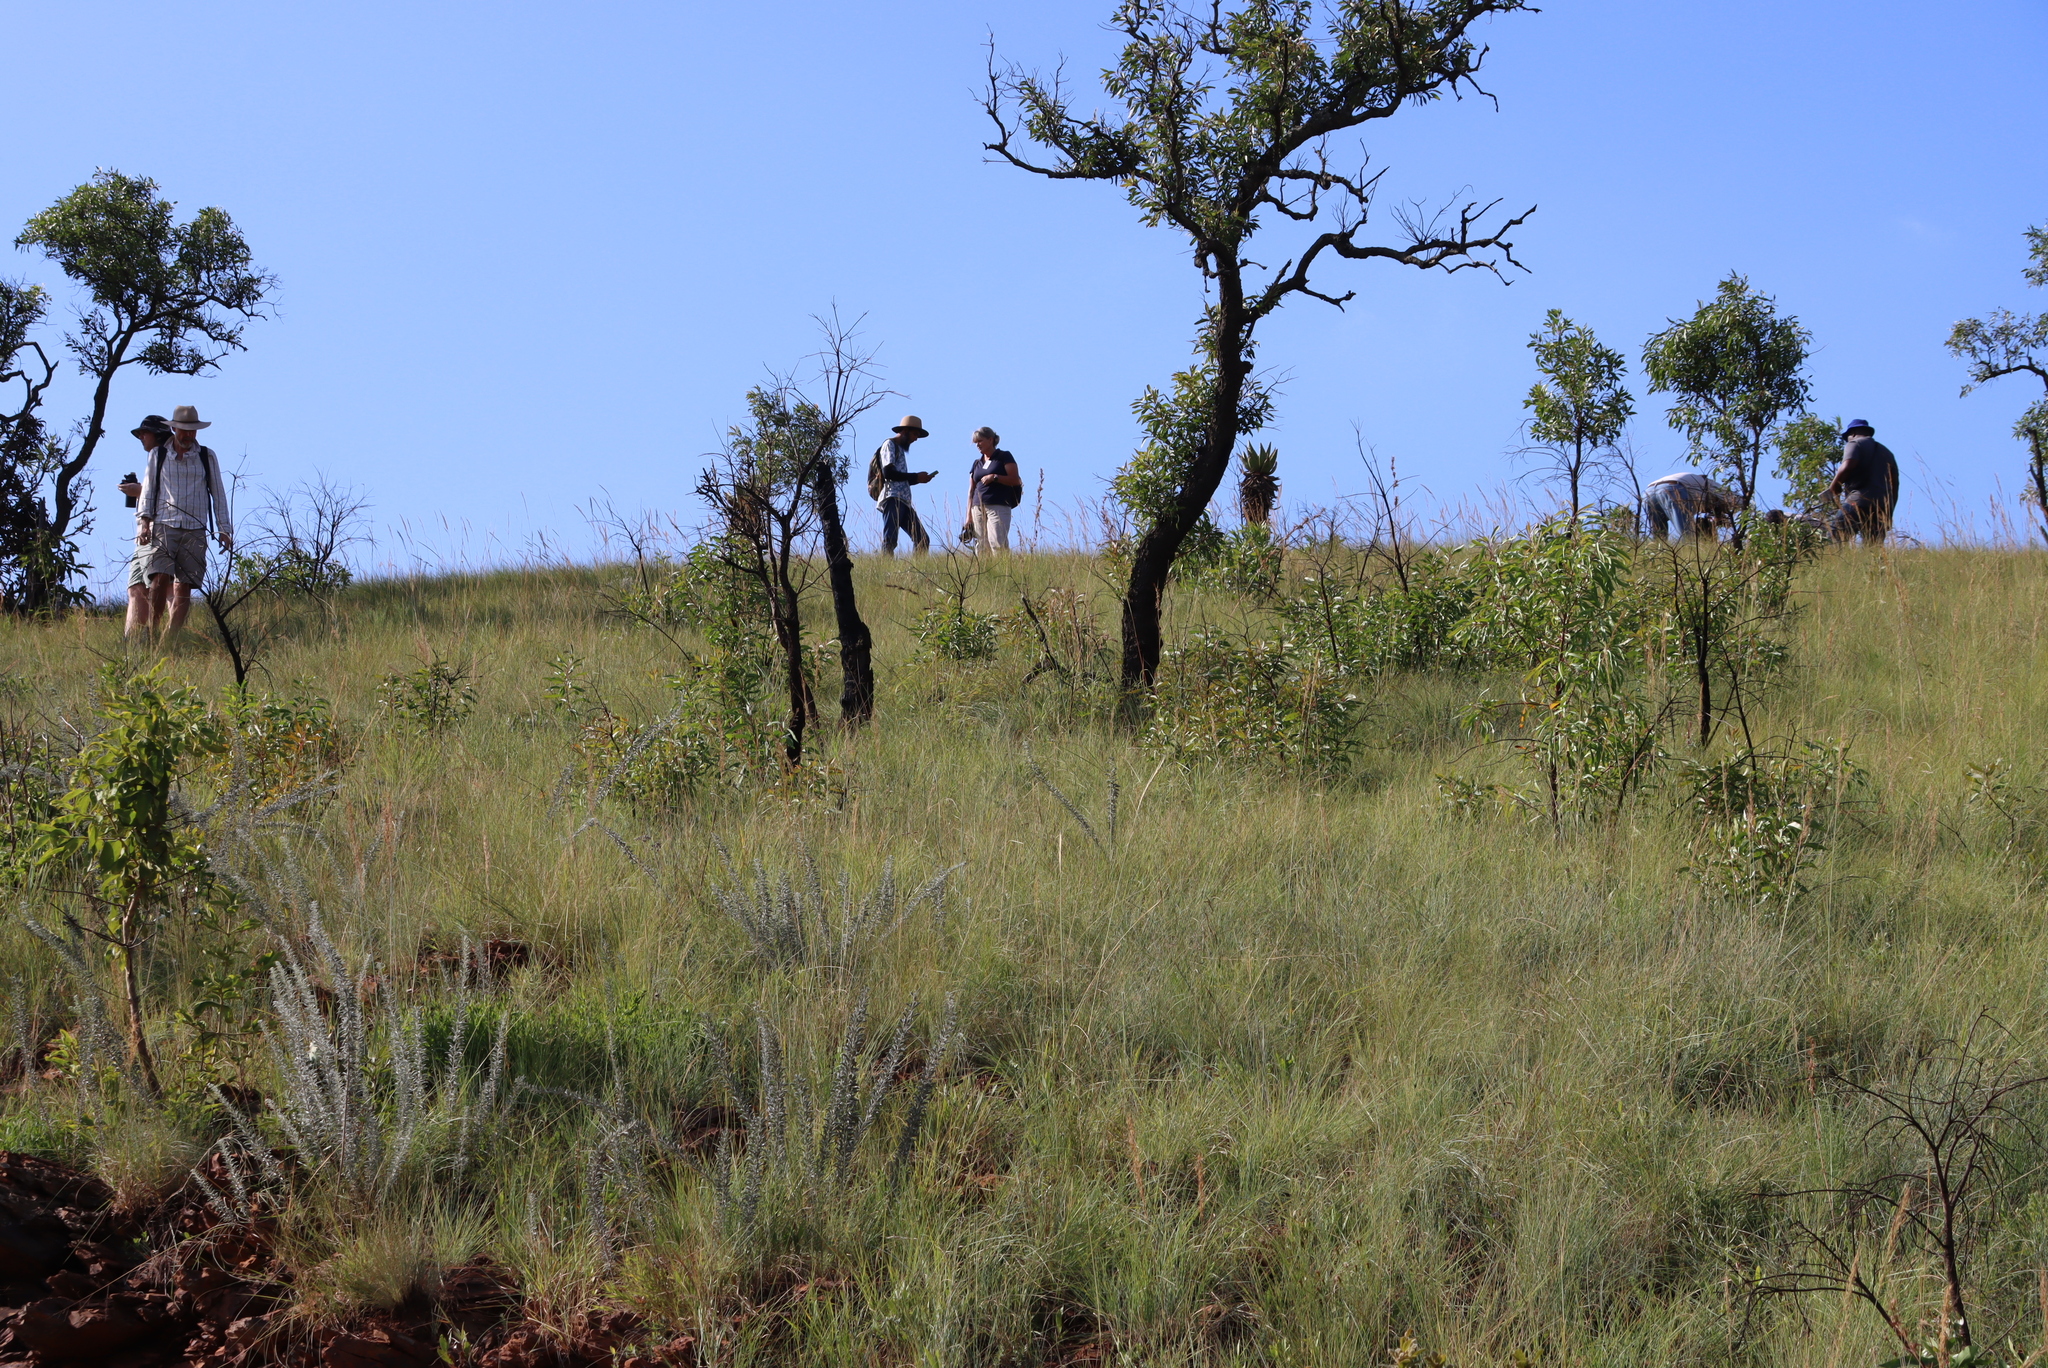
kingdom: Plantae
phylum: Tracheophyta
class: Magnoliopsida
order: Proteales
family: Proteaceae
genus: Faurea
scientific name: Faurea saligna
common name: African bean
